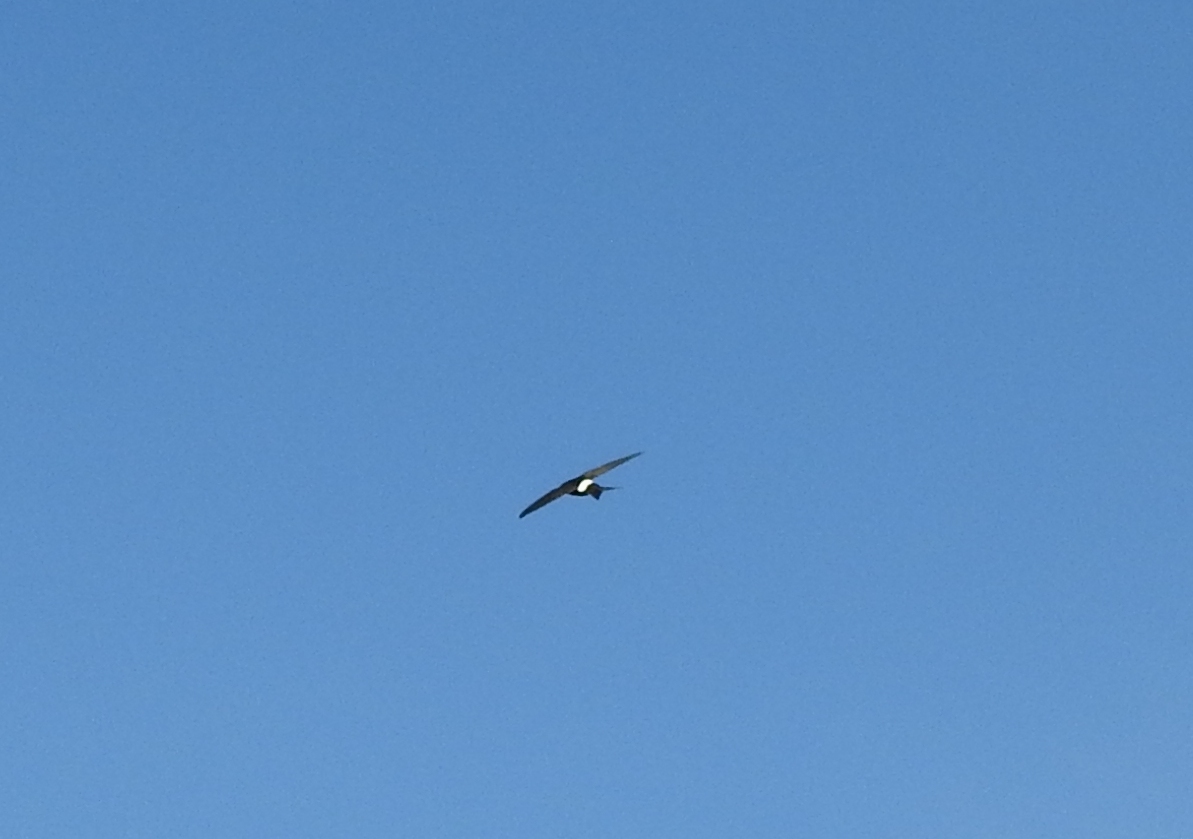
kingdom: Animalia
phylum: Chordata
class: Aves
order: Apodiformes
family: Apodidae
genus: Apus
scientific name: Apus pacificus
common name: Pacific swift
